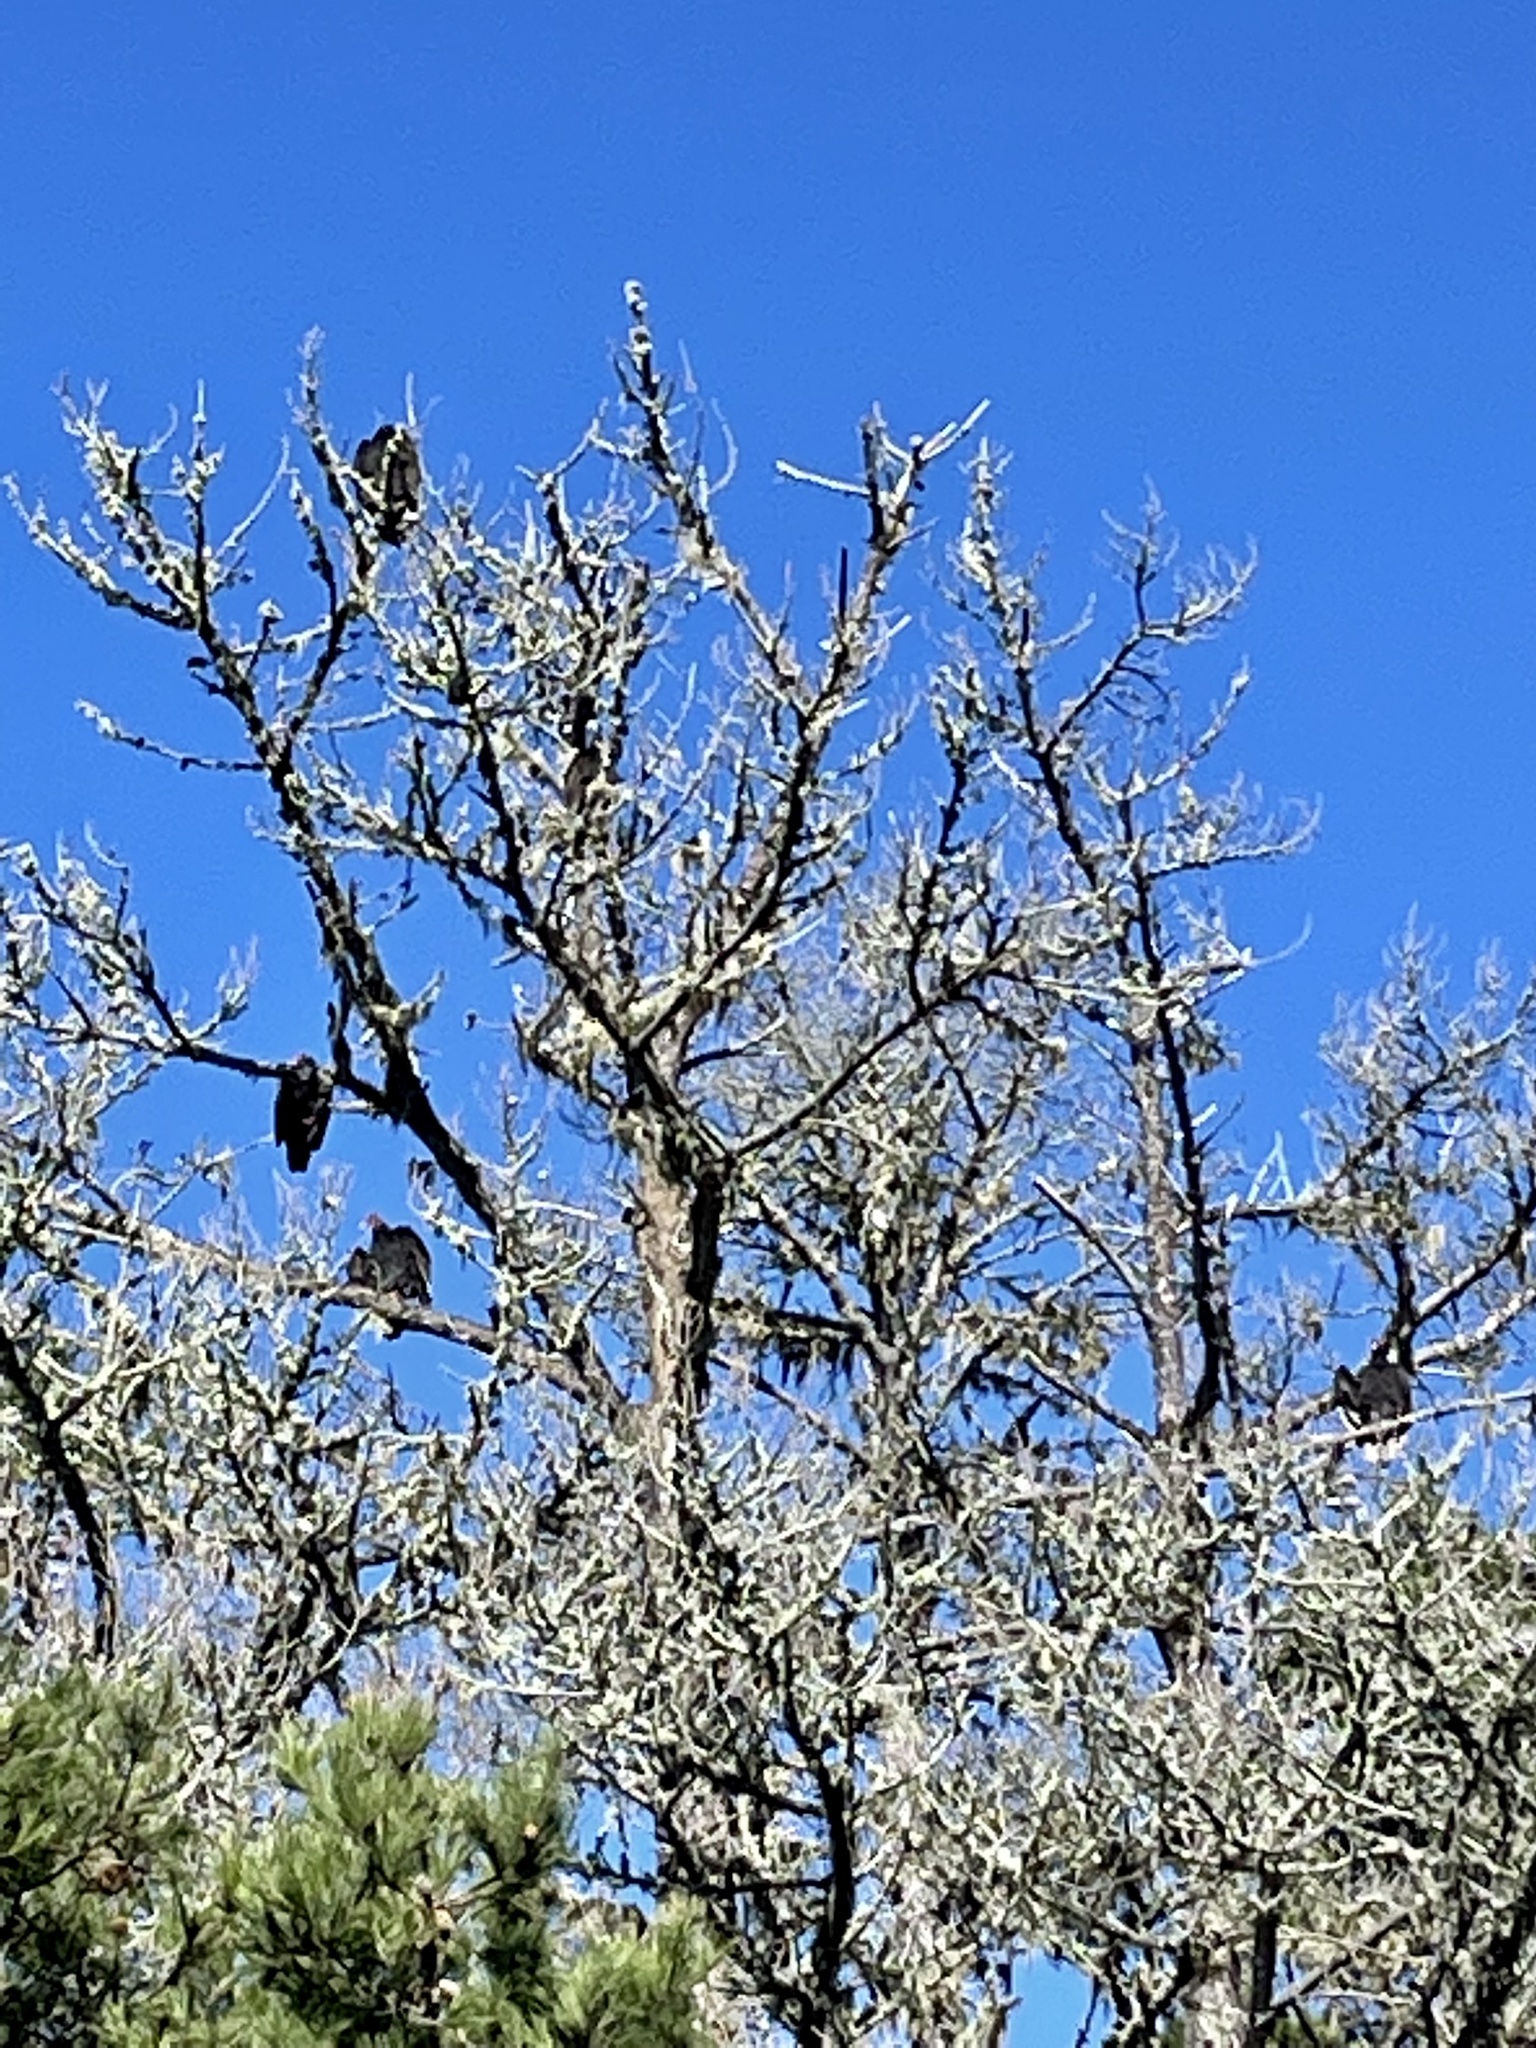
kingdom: Animalia
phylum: Chordata
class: Aves
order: Accipitriformes
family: Cathartidae
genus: Cathartes
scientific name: Cathartes aura
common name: Turkey vulture
